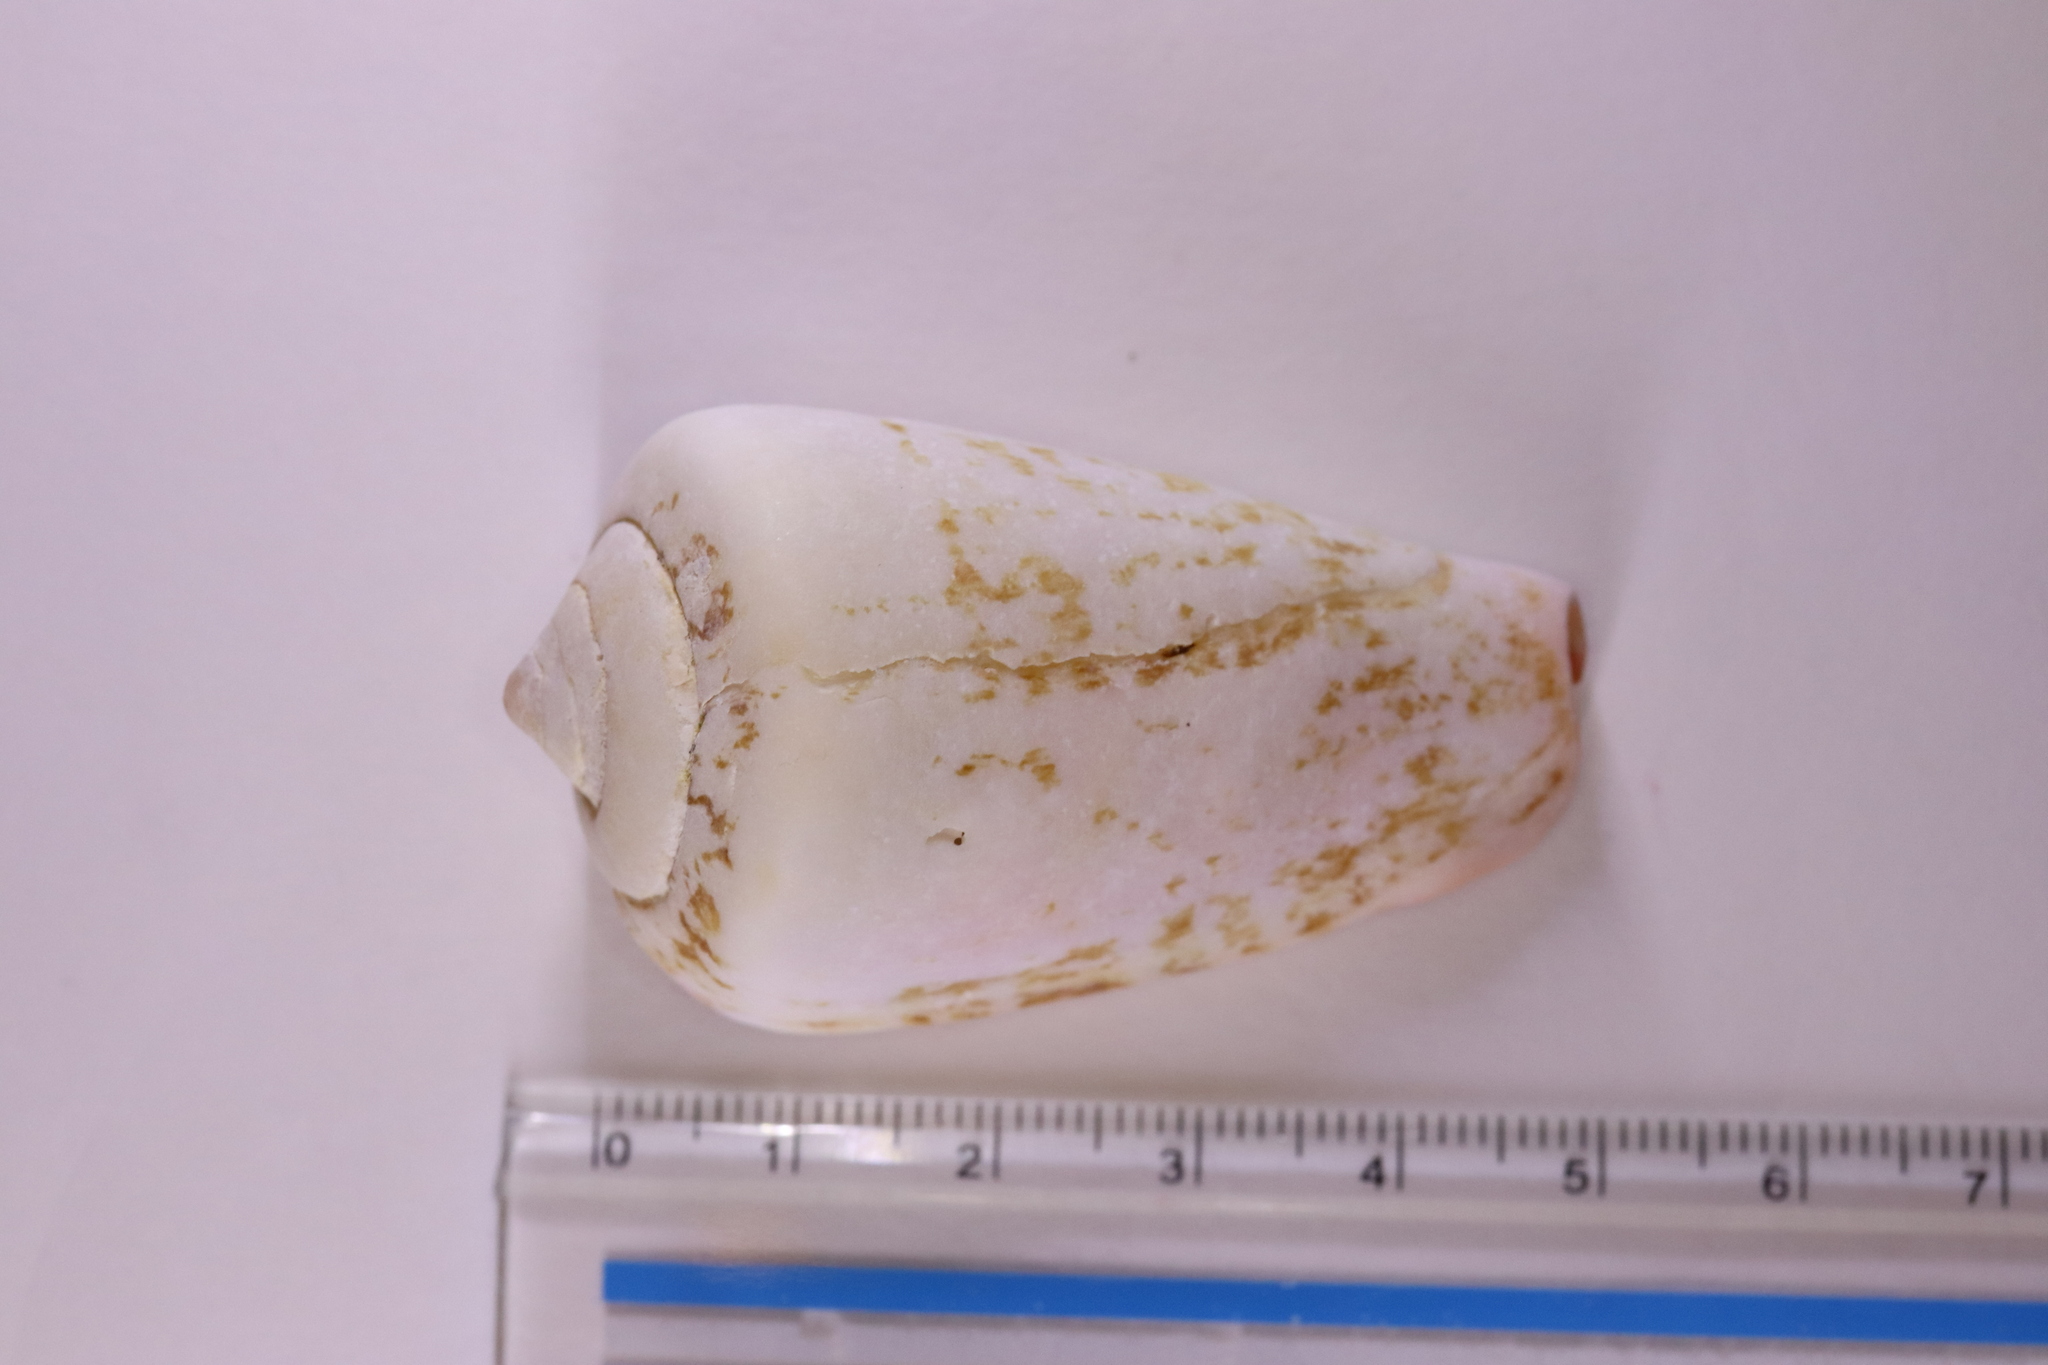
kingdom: Animalia
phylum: Mollusca
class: Gastropoda
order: Littorinimorpha
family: Strombidae
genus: Conomurex
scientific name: Conomurex luhuanus
